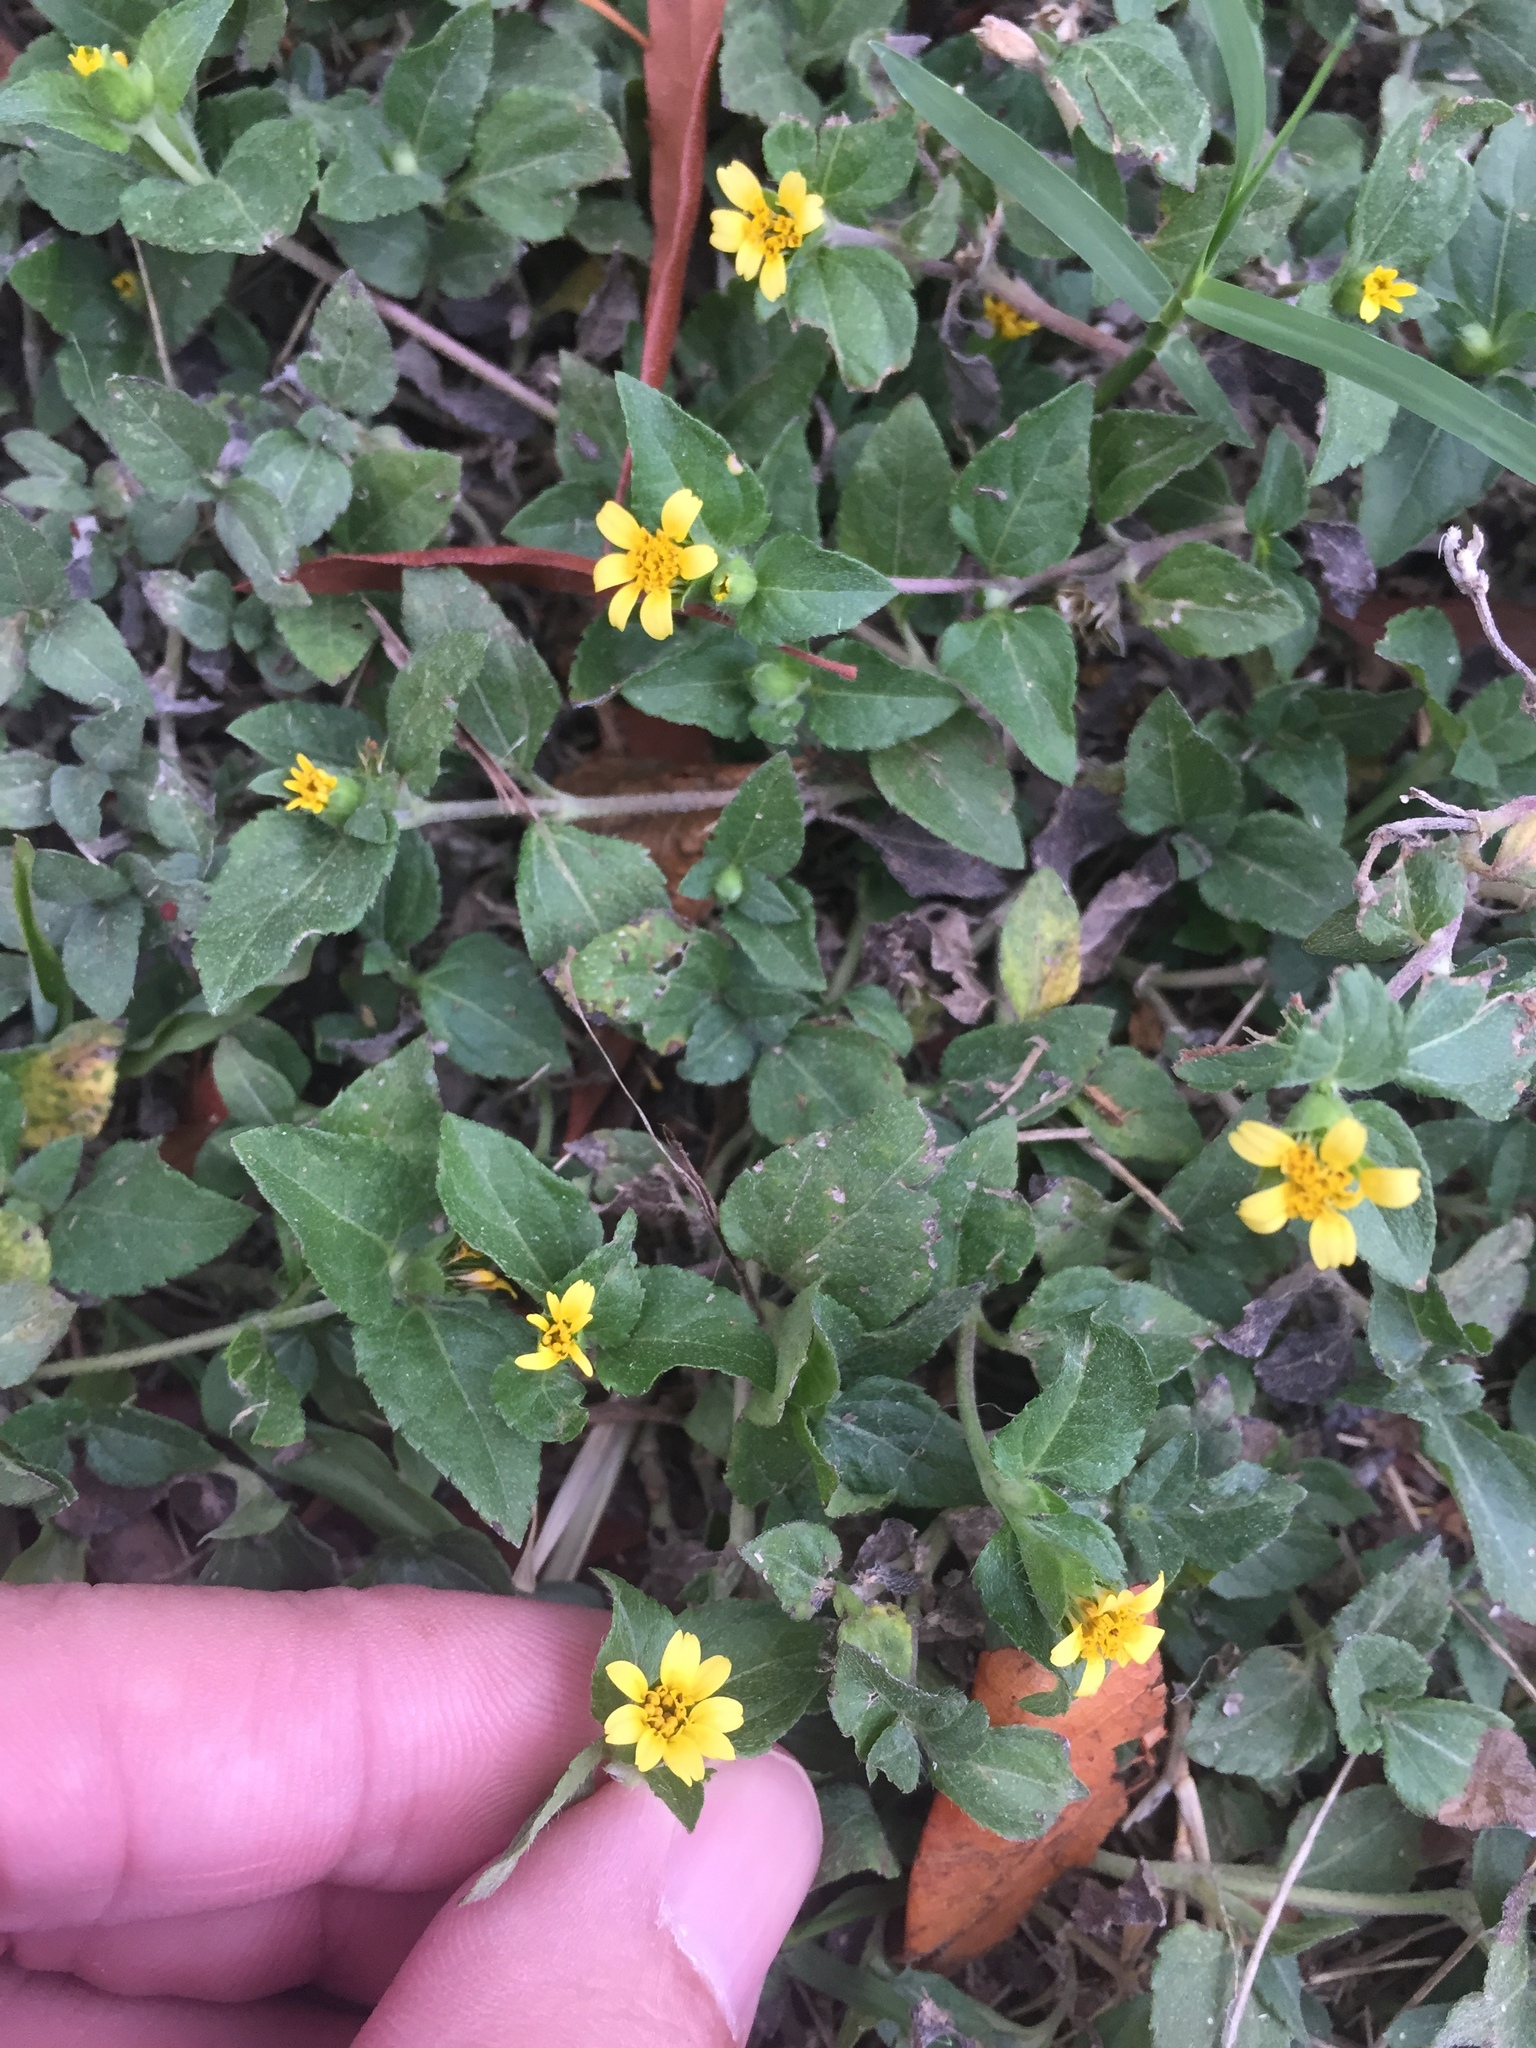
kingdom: Plantae
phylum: Tracheophyta
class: Magnoliopsida
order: Asterales
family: Asteraceae
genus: Calyptocarpus
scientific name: Calyptocarpus vialis
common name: Straggler daisy
